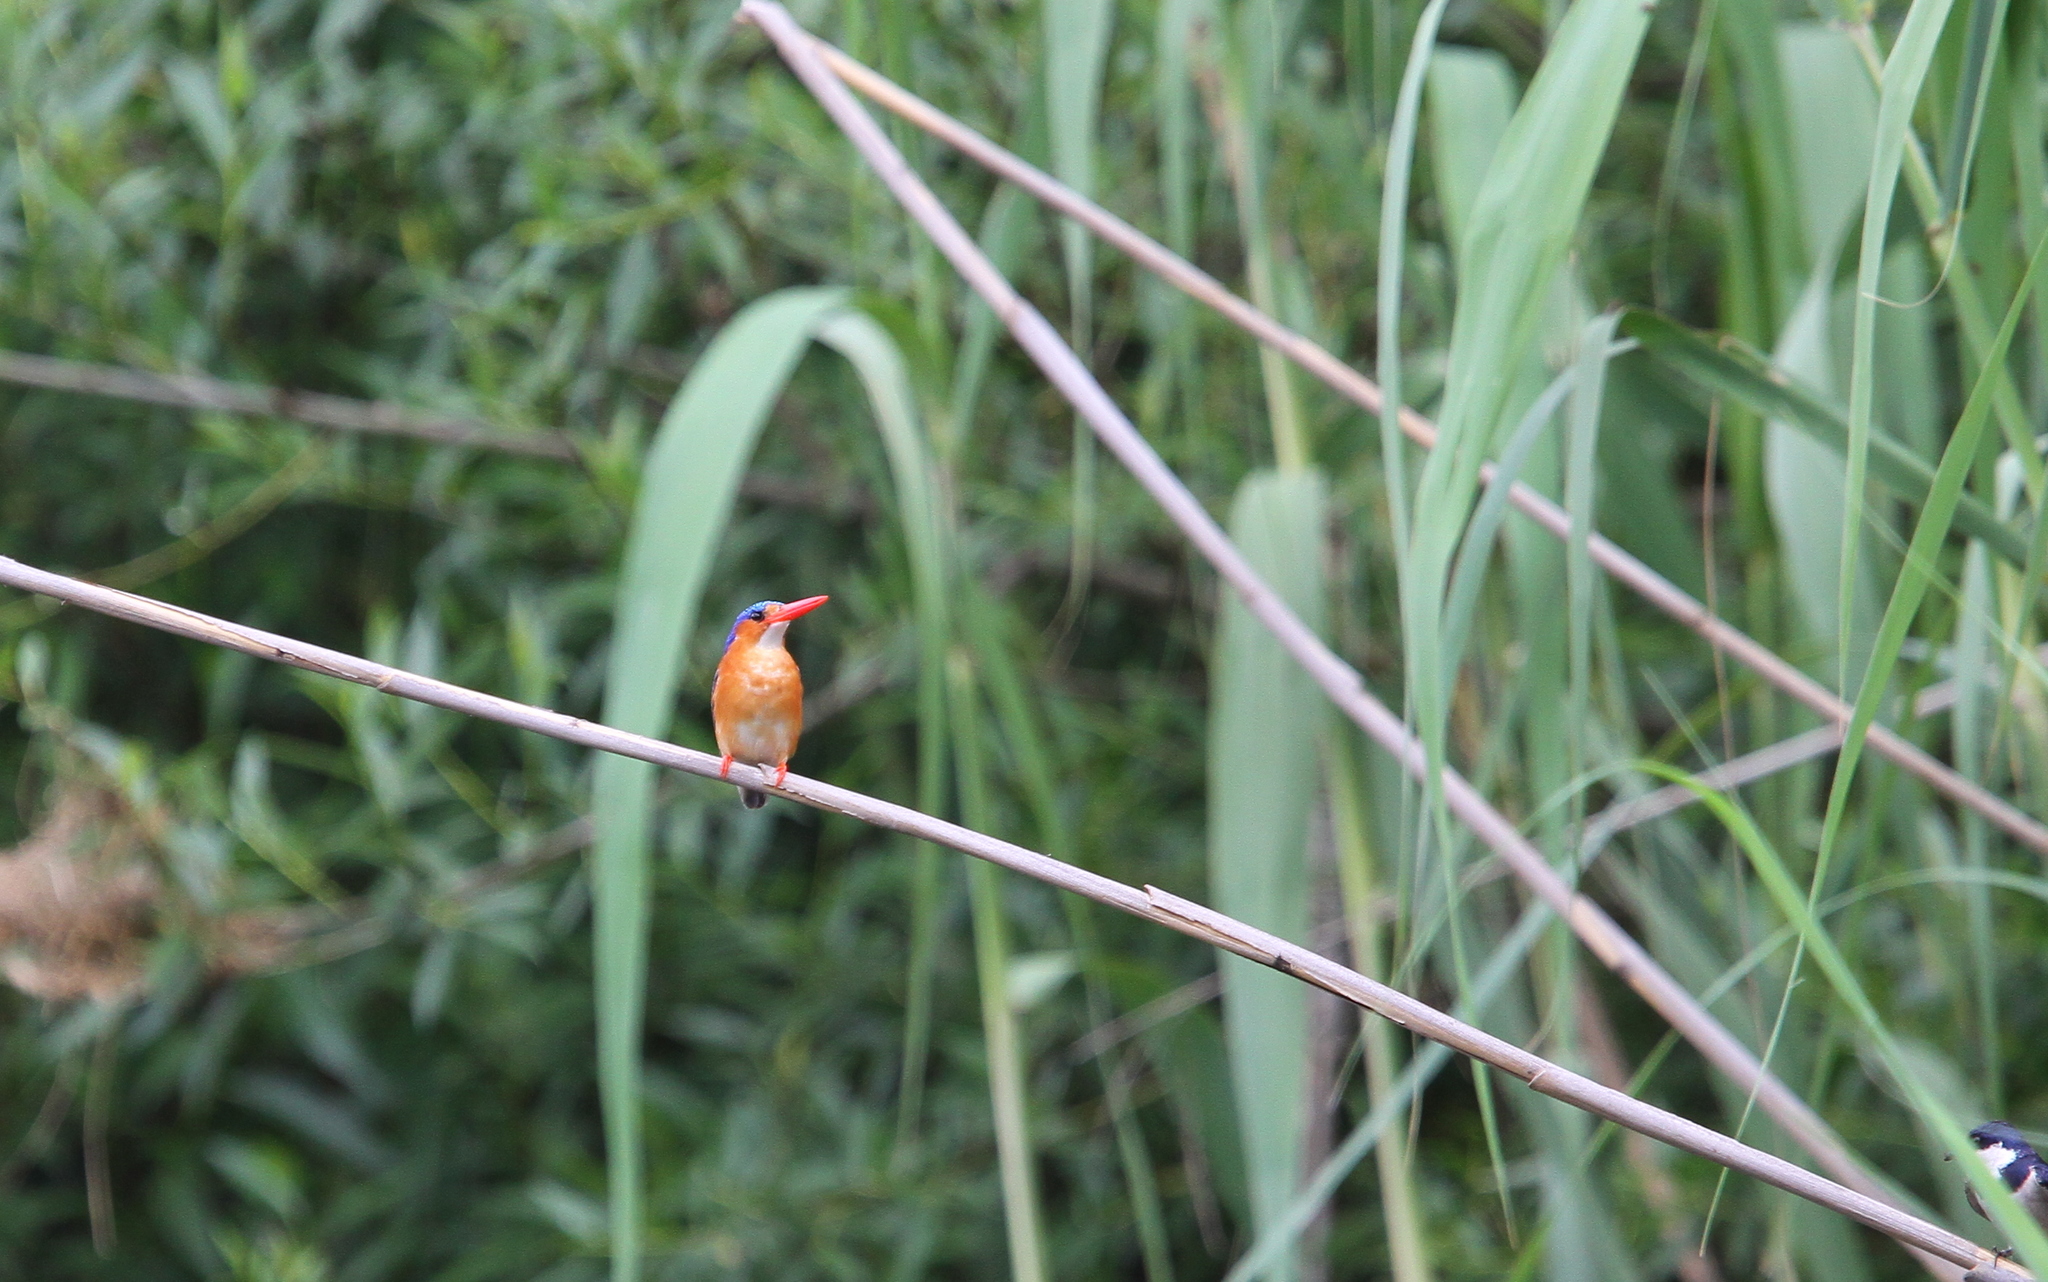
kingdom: Animalia
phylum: Chordata
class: Aves
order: Coraciiformes
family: Alcedinidae
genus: Corythornis
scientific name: Corythornis cristatus
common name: Malachite kingfisher
